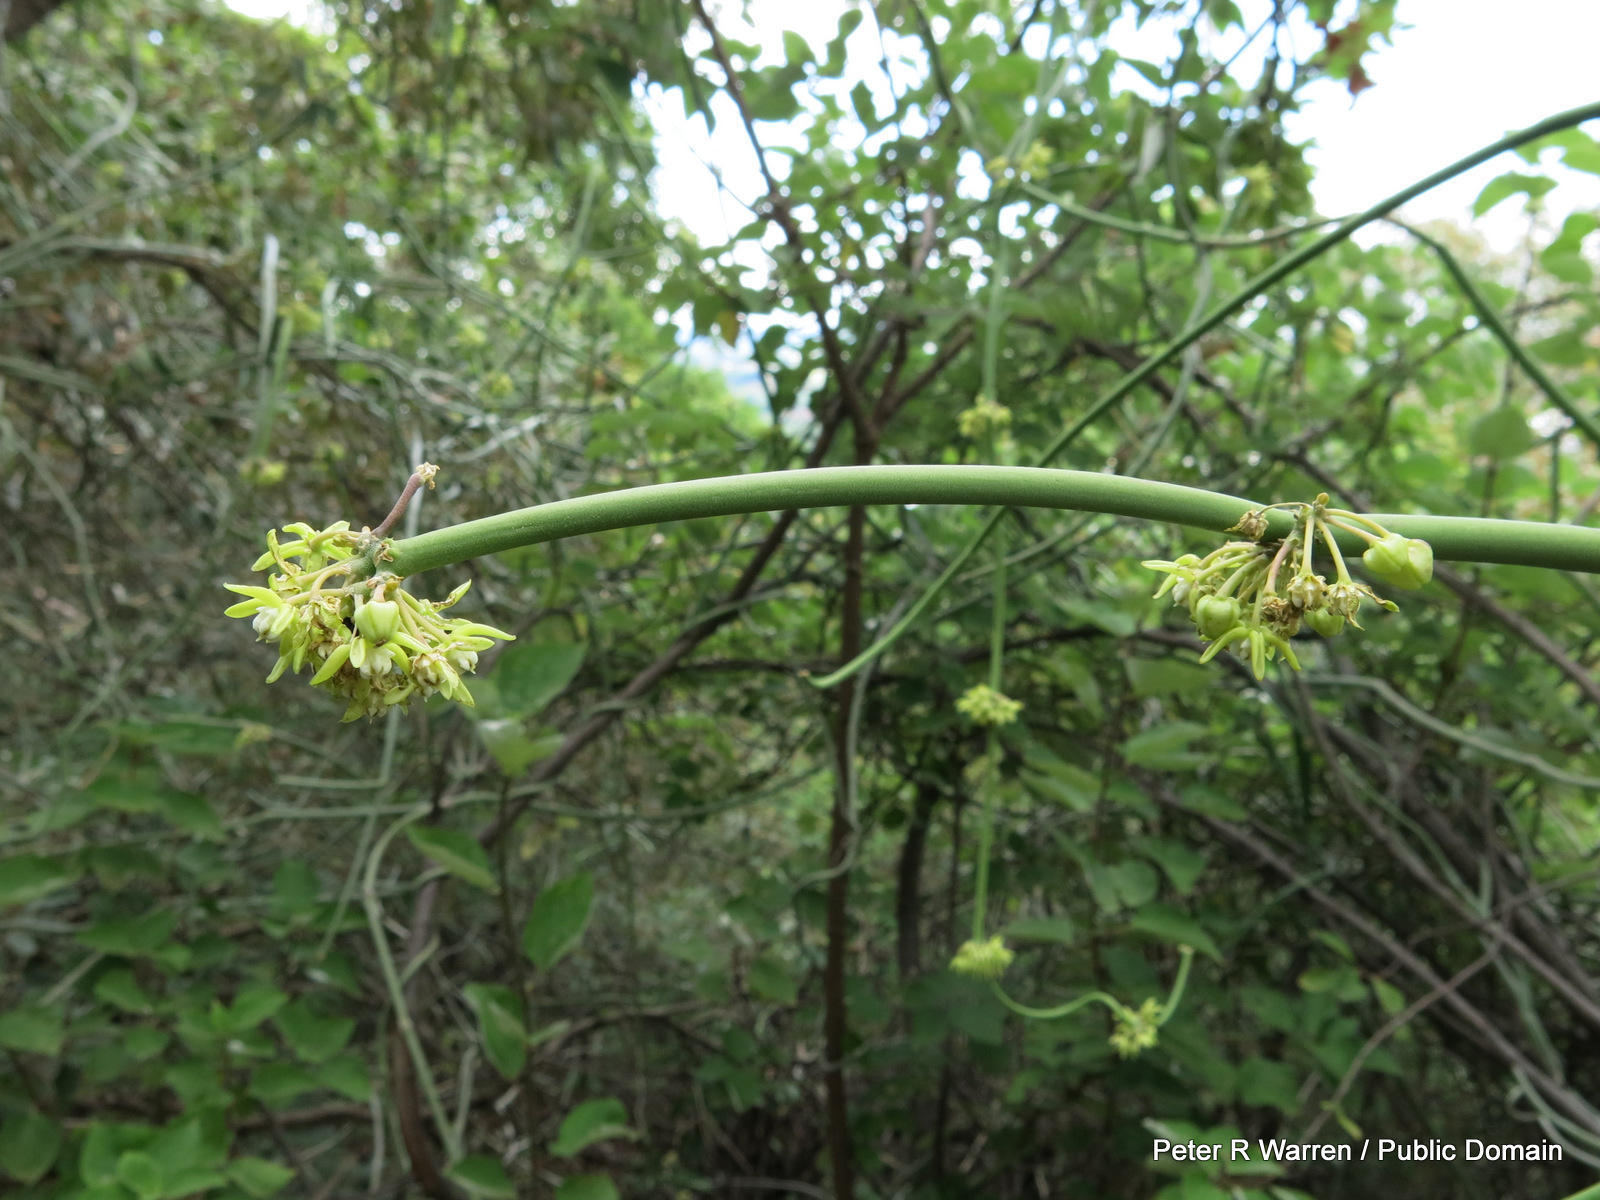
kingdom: Plantae
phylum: Tracheophyta
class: Magnoliopsida
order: Gentianales
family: Apocynaceae
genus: Cynanchum
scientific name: Cynanchum viminale
